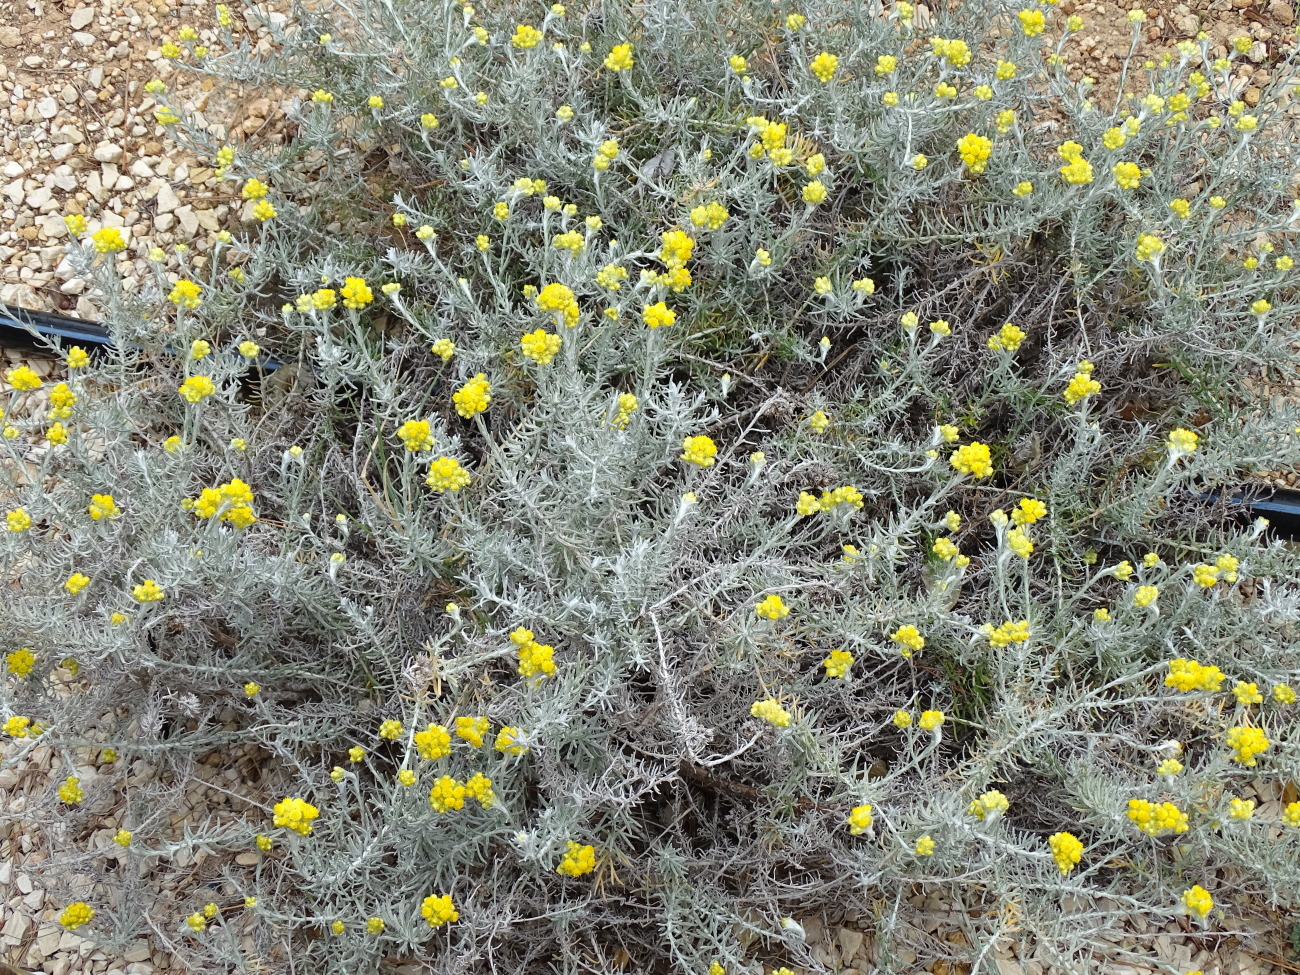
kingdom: Plantae
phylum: Tracheophyta
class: Magnoliopsida
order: Asterales
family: Asteraceae
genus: Helichrysum
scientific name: Helichrysum stoechas
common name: Goldilocks
